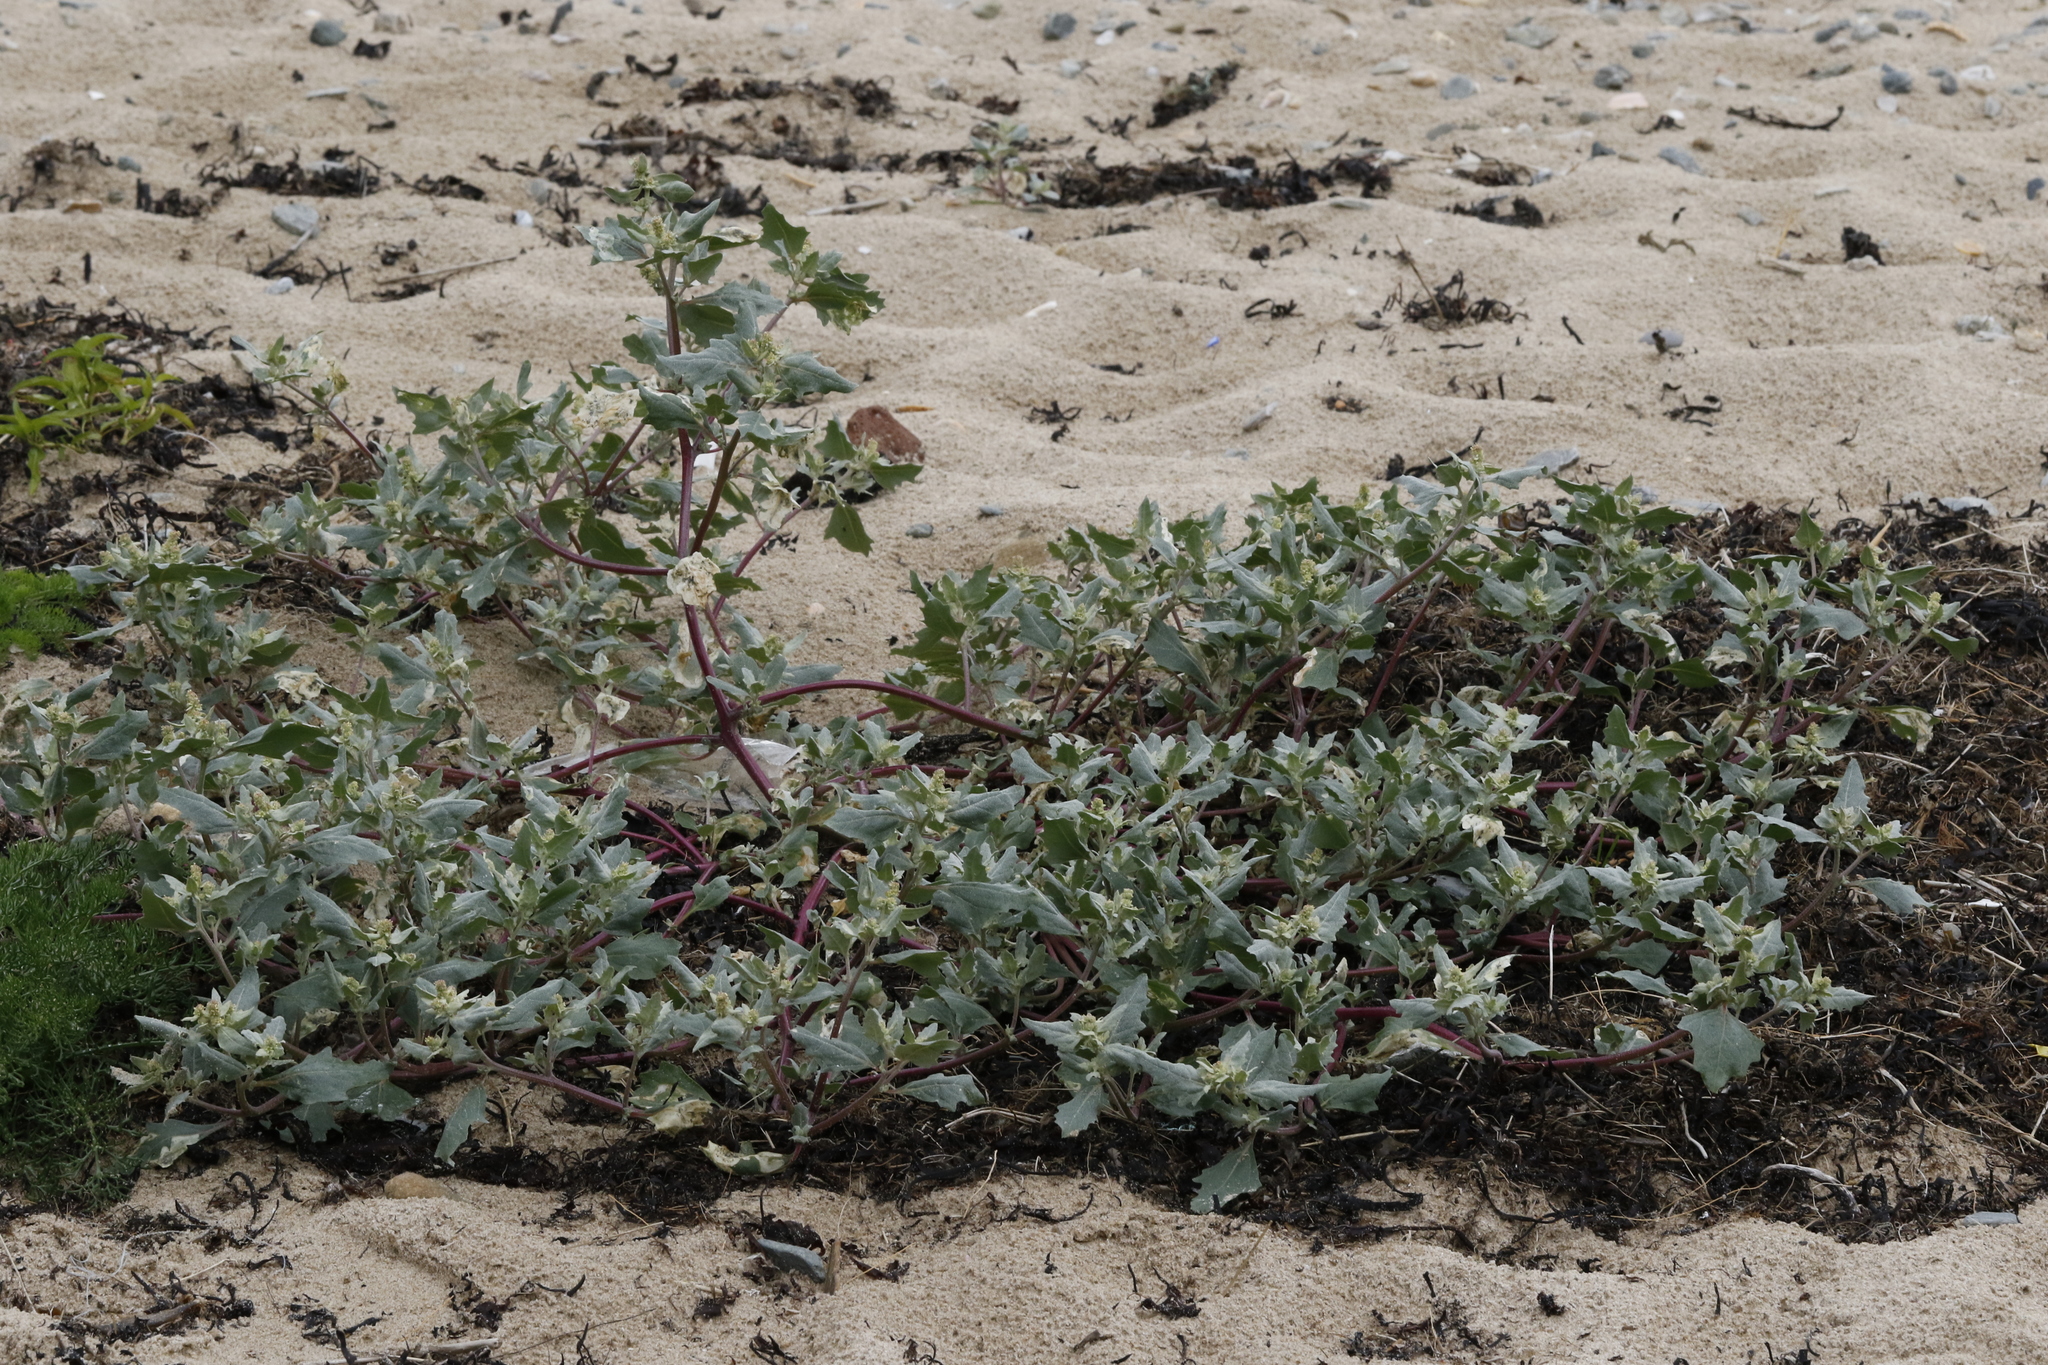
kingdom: Plantae
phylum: Tracheophyta
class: Magnoliopsida
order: Caryophyllales
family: Amaranthaceae
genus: Atriplex
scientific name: Atriplex prostrata
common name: Spear-leaved orache
